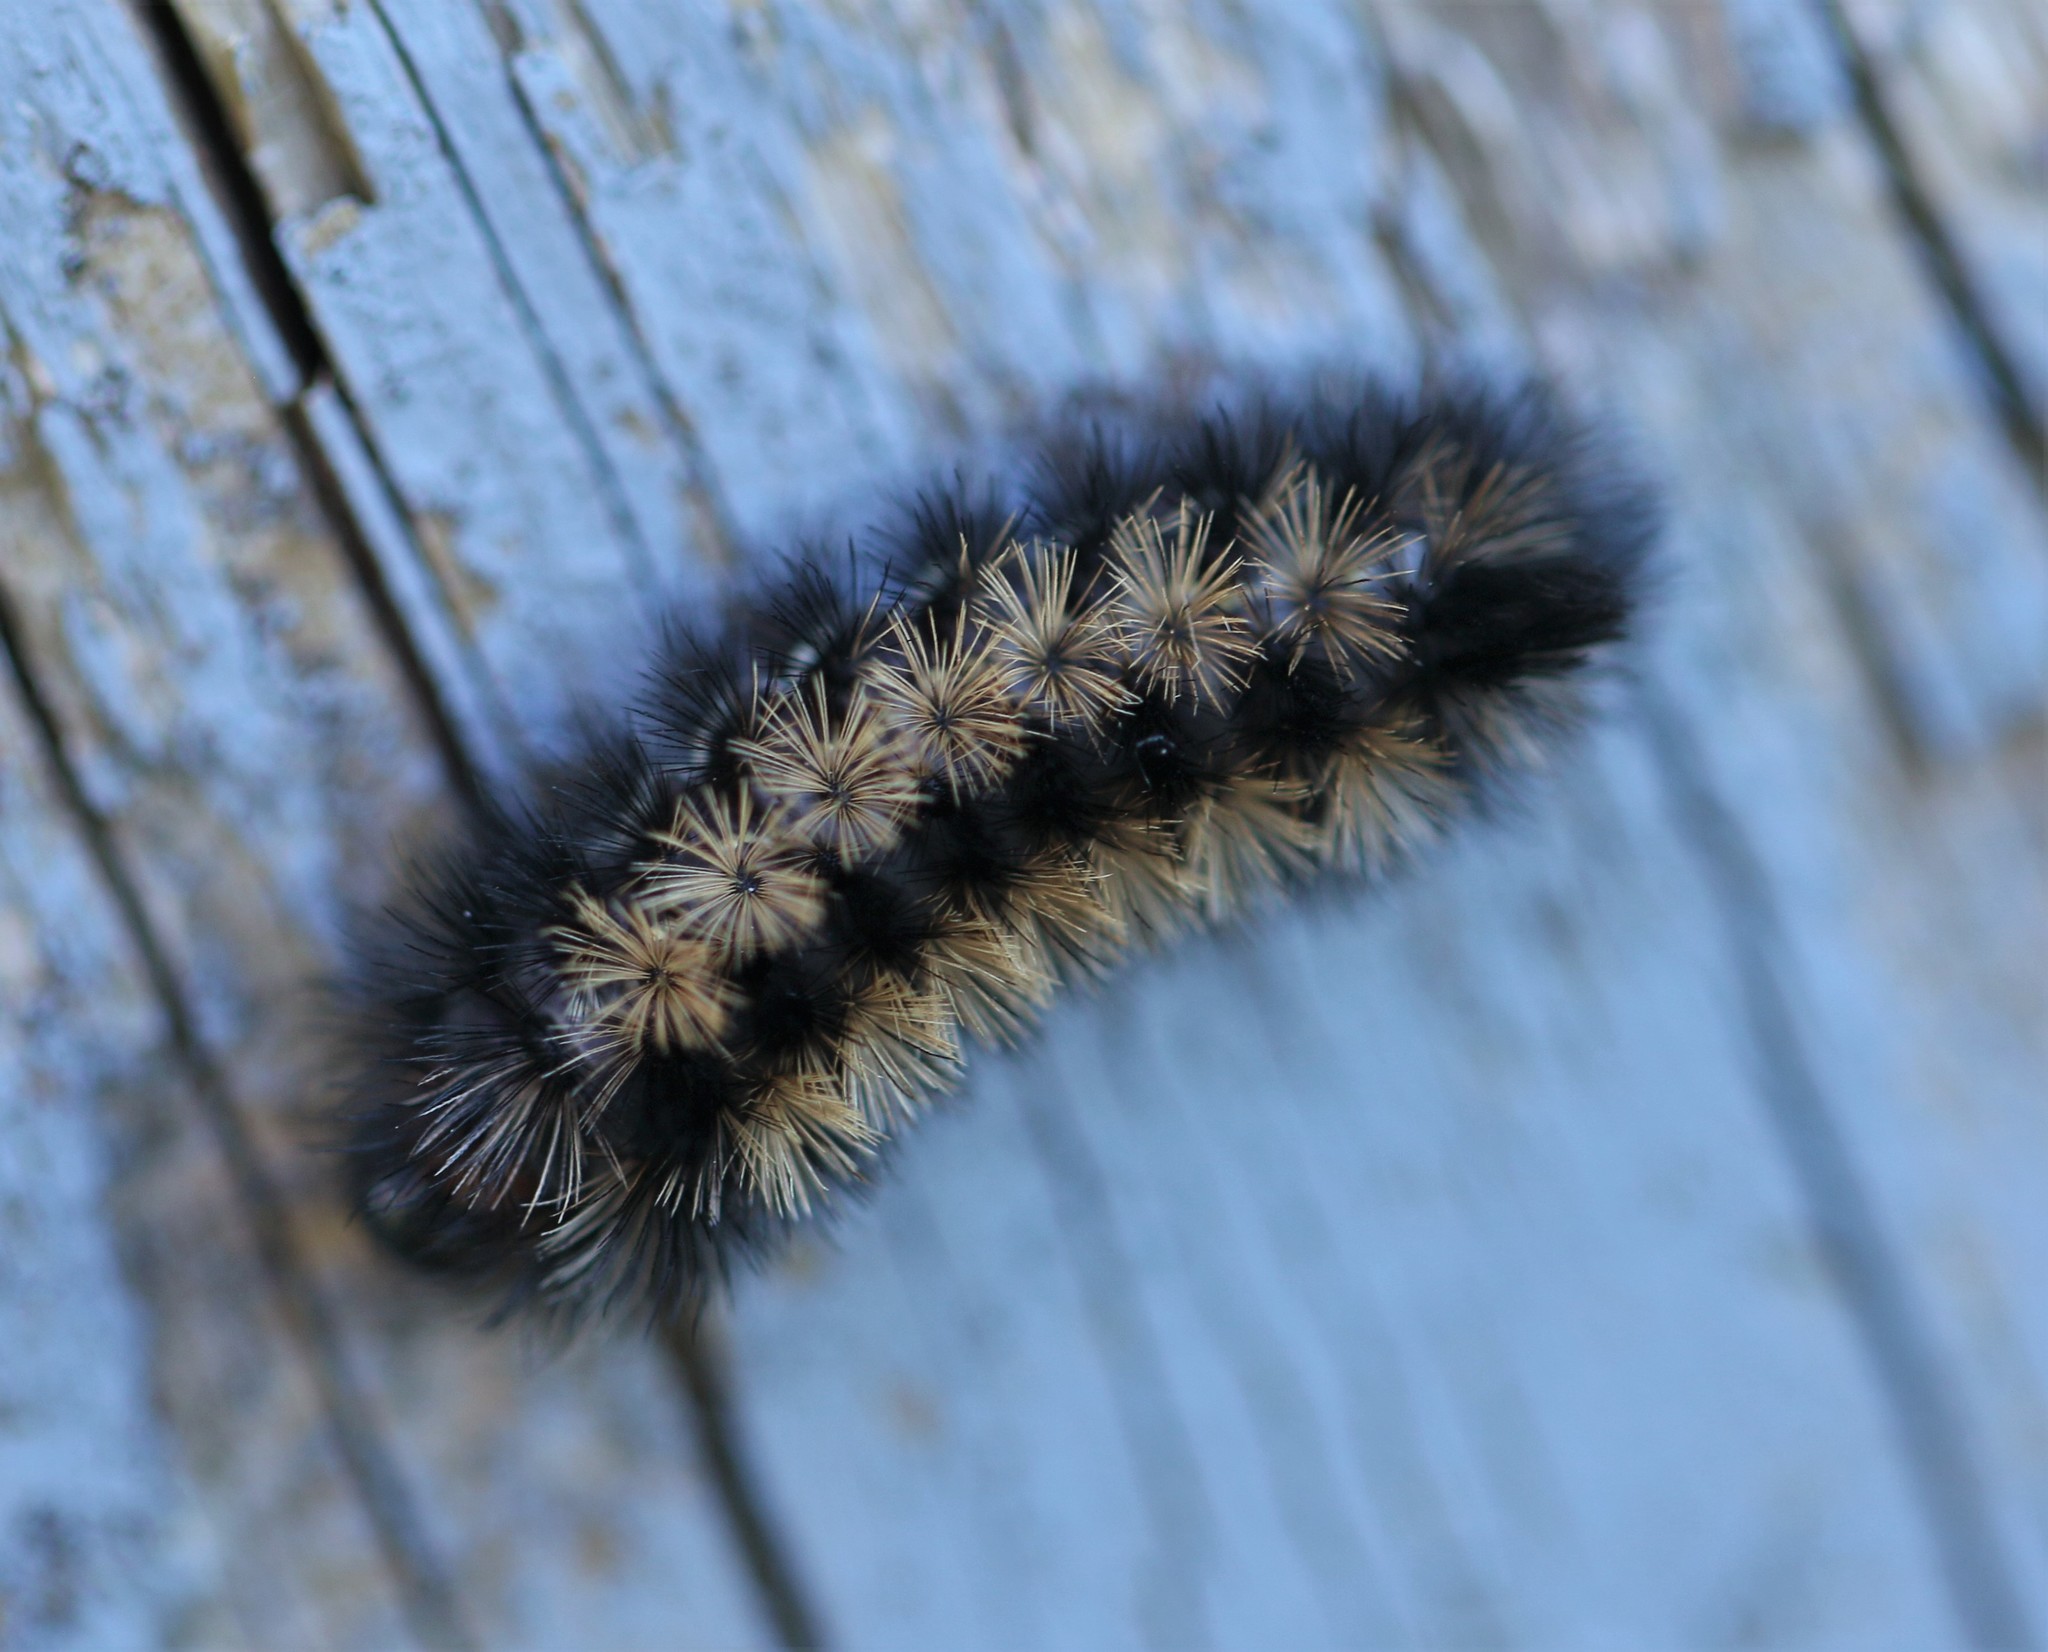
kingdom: Animalia
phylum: Arthropoda
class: Insecta
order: Lepidoptera
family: Erebidae
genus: Ctenucha
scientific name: Ctenucha virginica
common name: Virginia ctenucha moth
